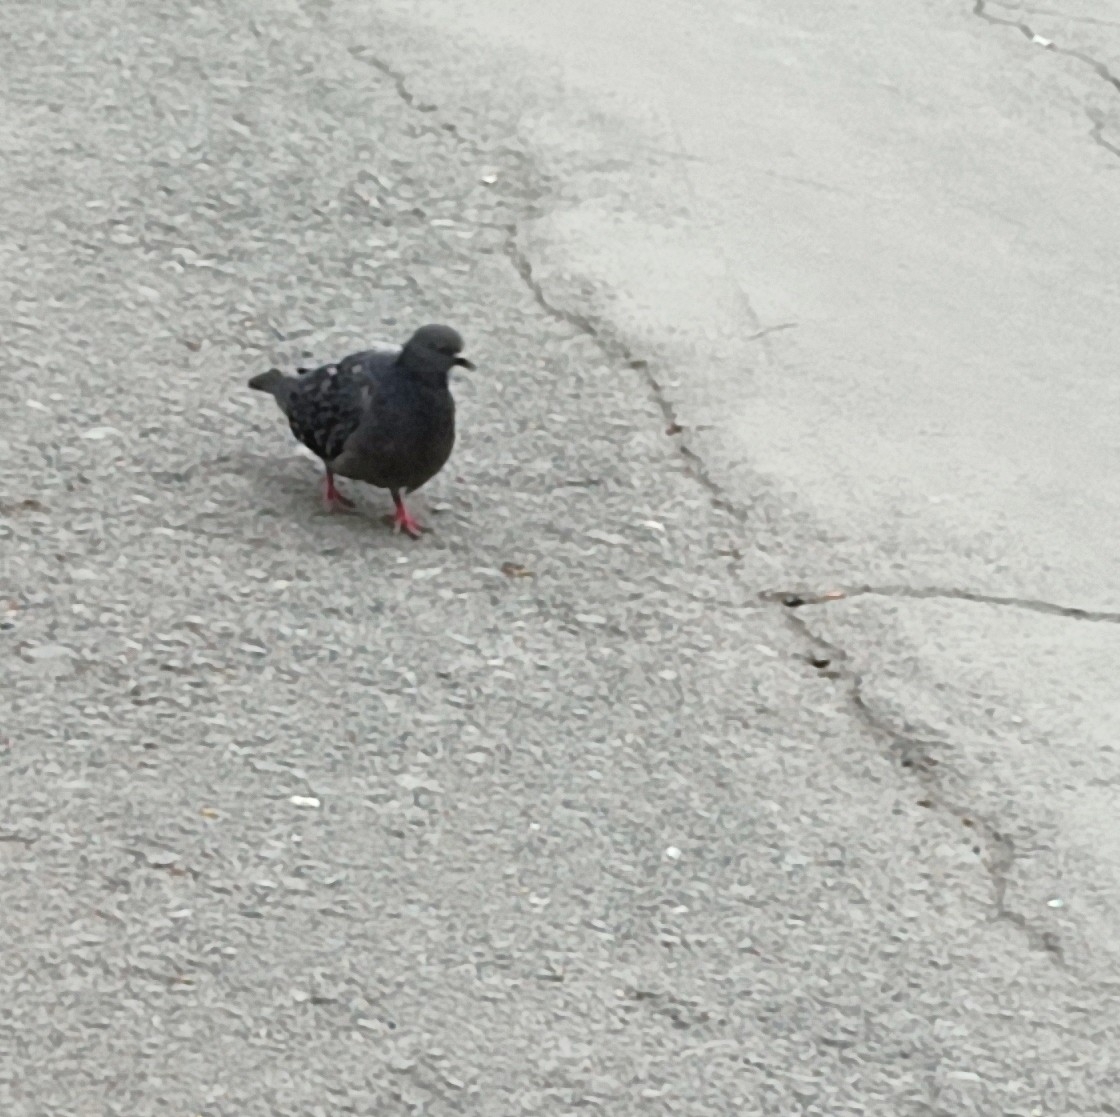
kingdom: Animalia
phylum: Chordata
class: Aves
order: Columbiformes
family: Columbidae
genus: Columba
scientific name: Columba livia
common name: Rock pigeon
